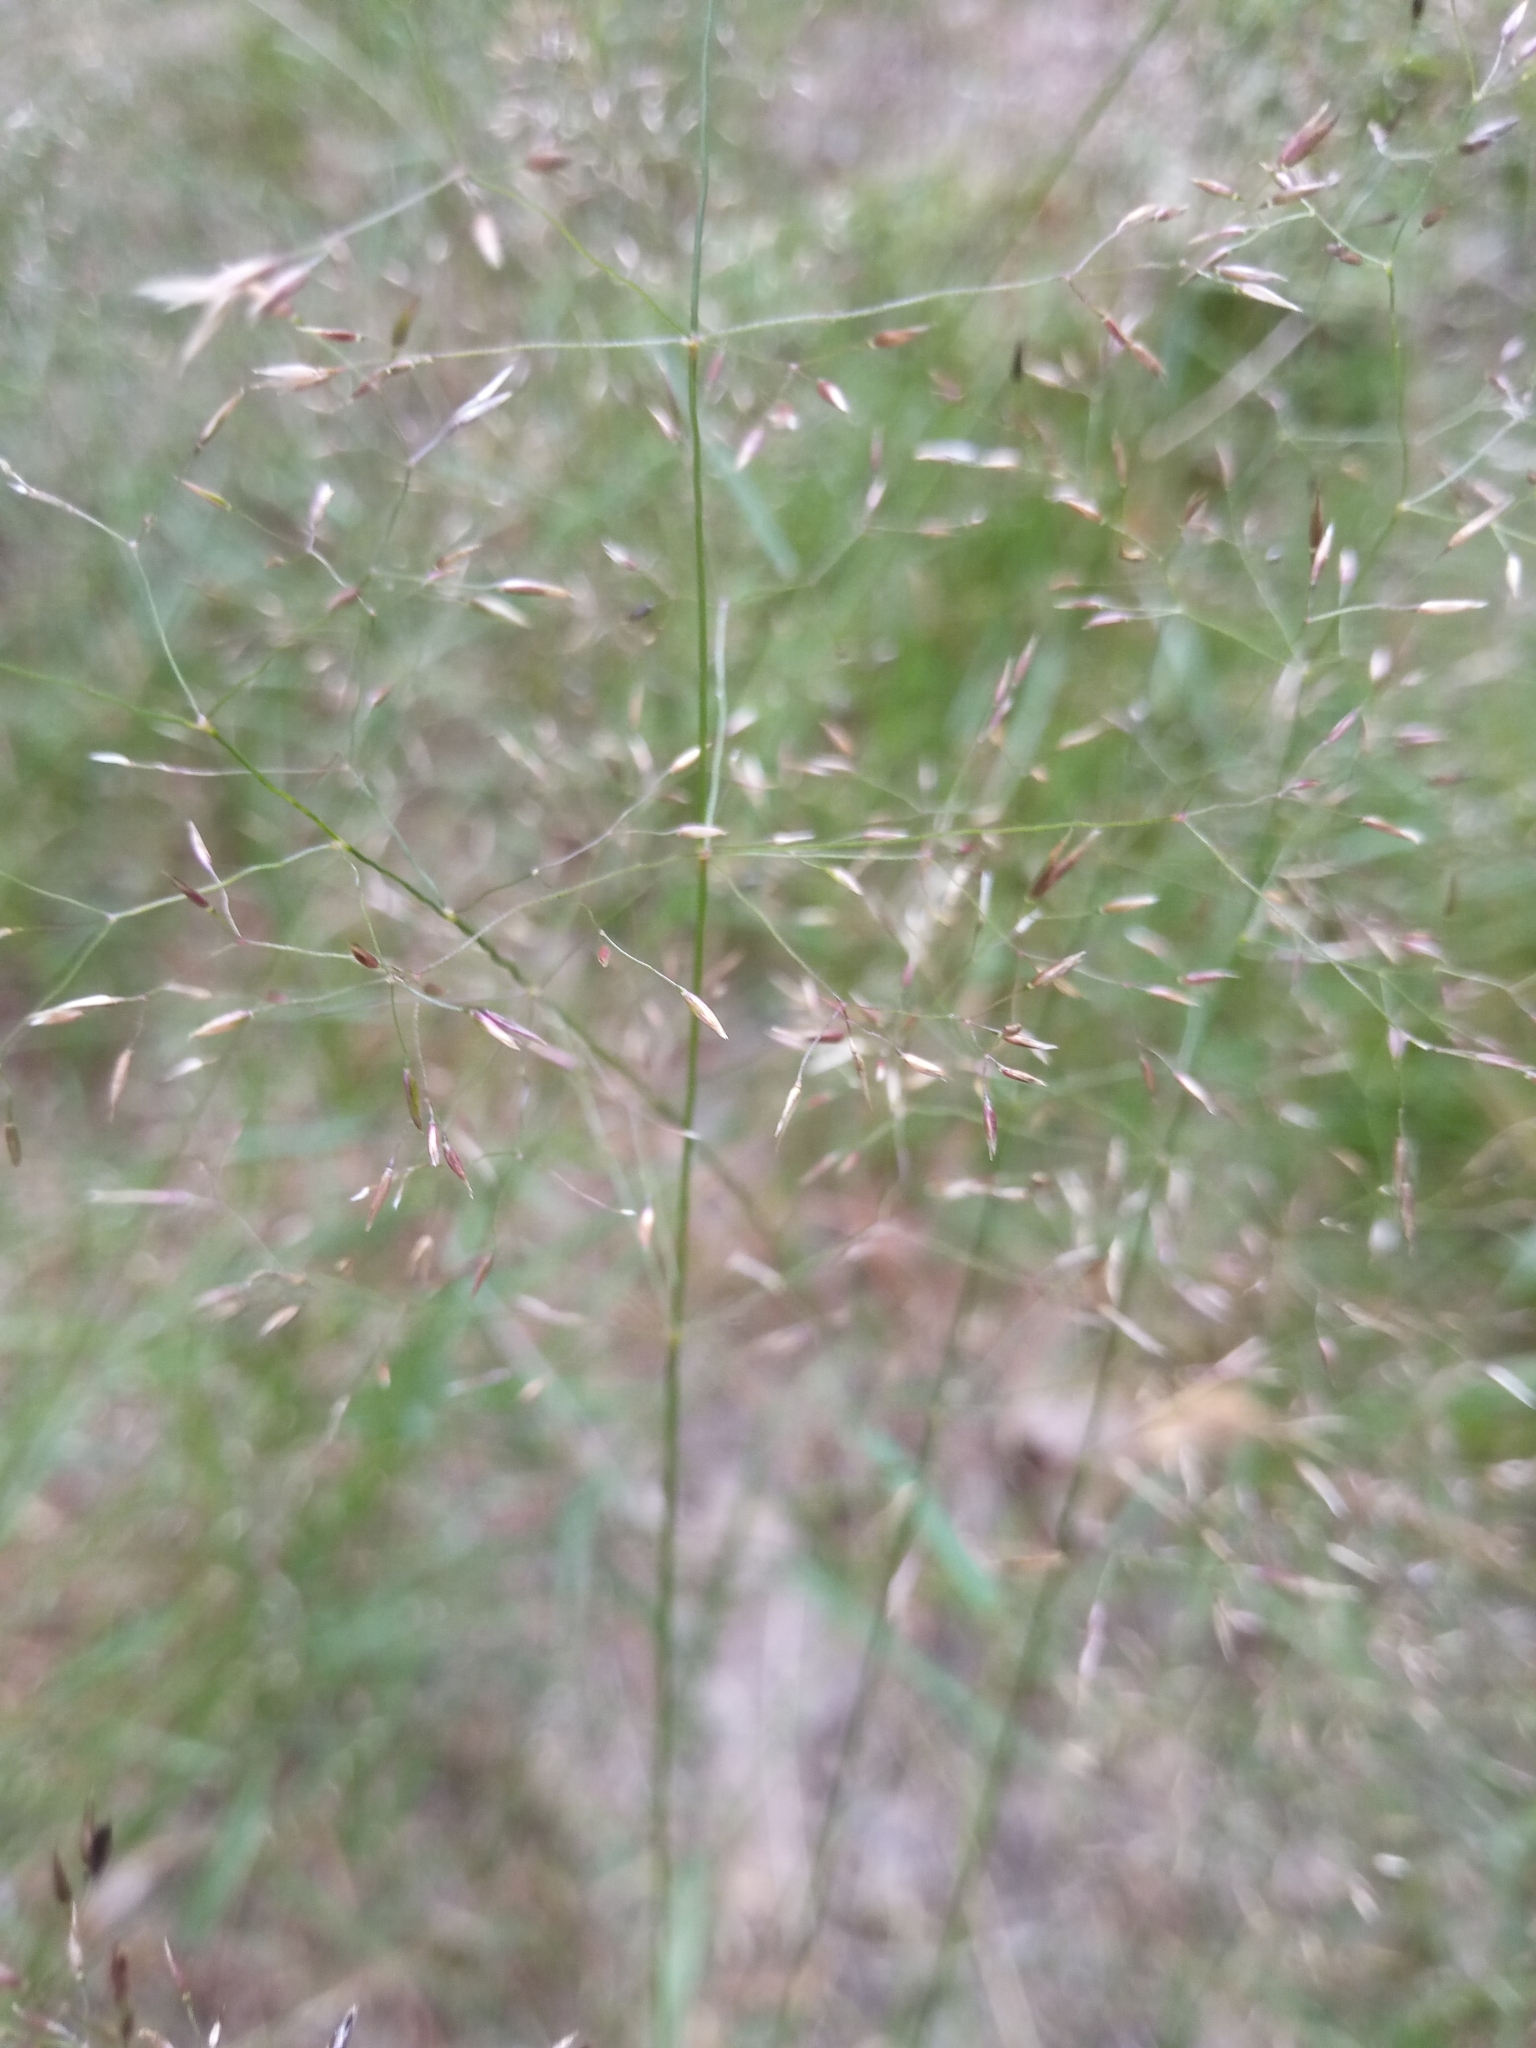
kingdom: Plantae
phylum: Tracheophyta
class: Liliopsida
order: Poales
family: Poaceae
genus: Agrostis
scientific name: Agrostis capillaris
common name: Colonial bentgrass
